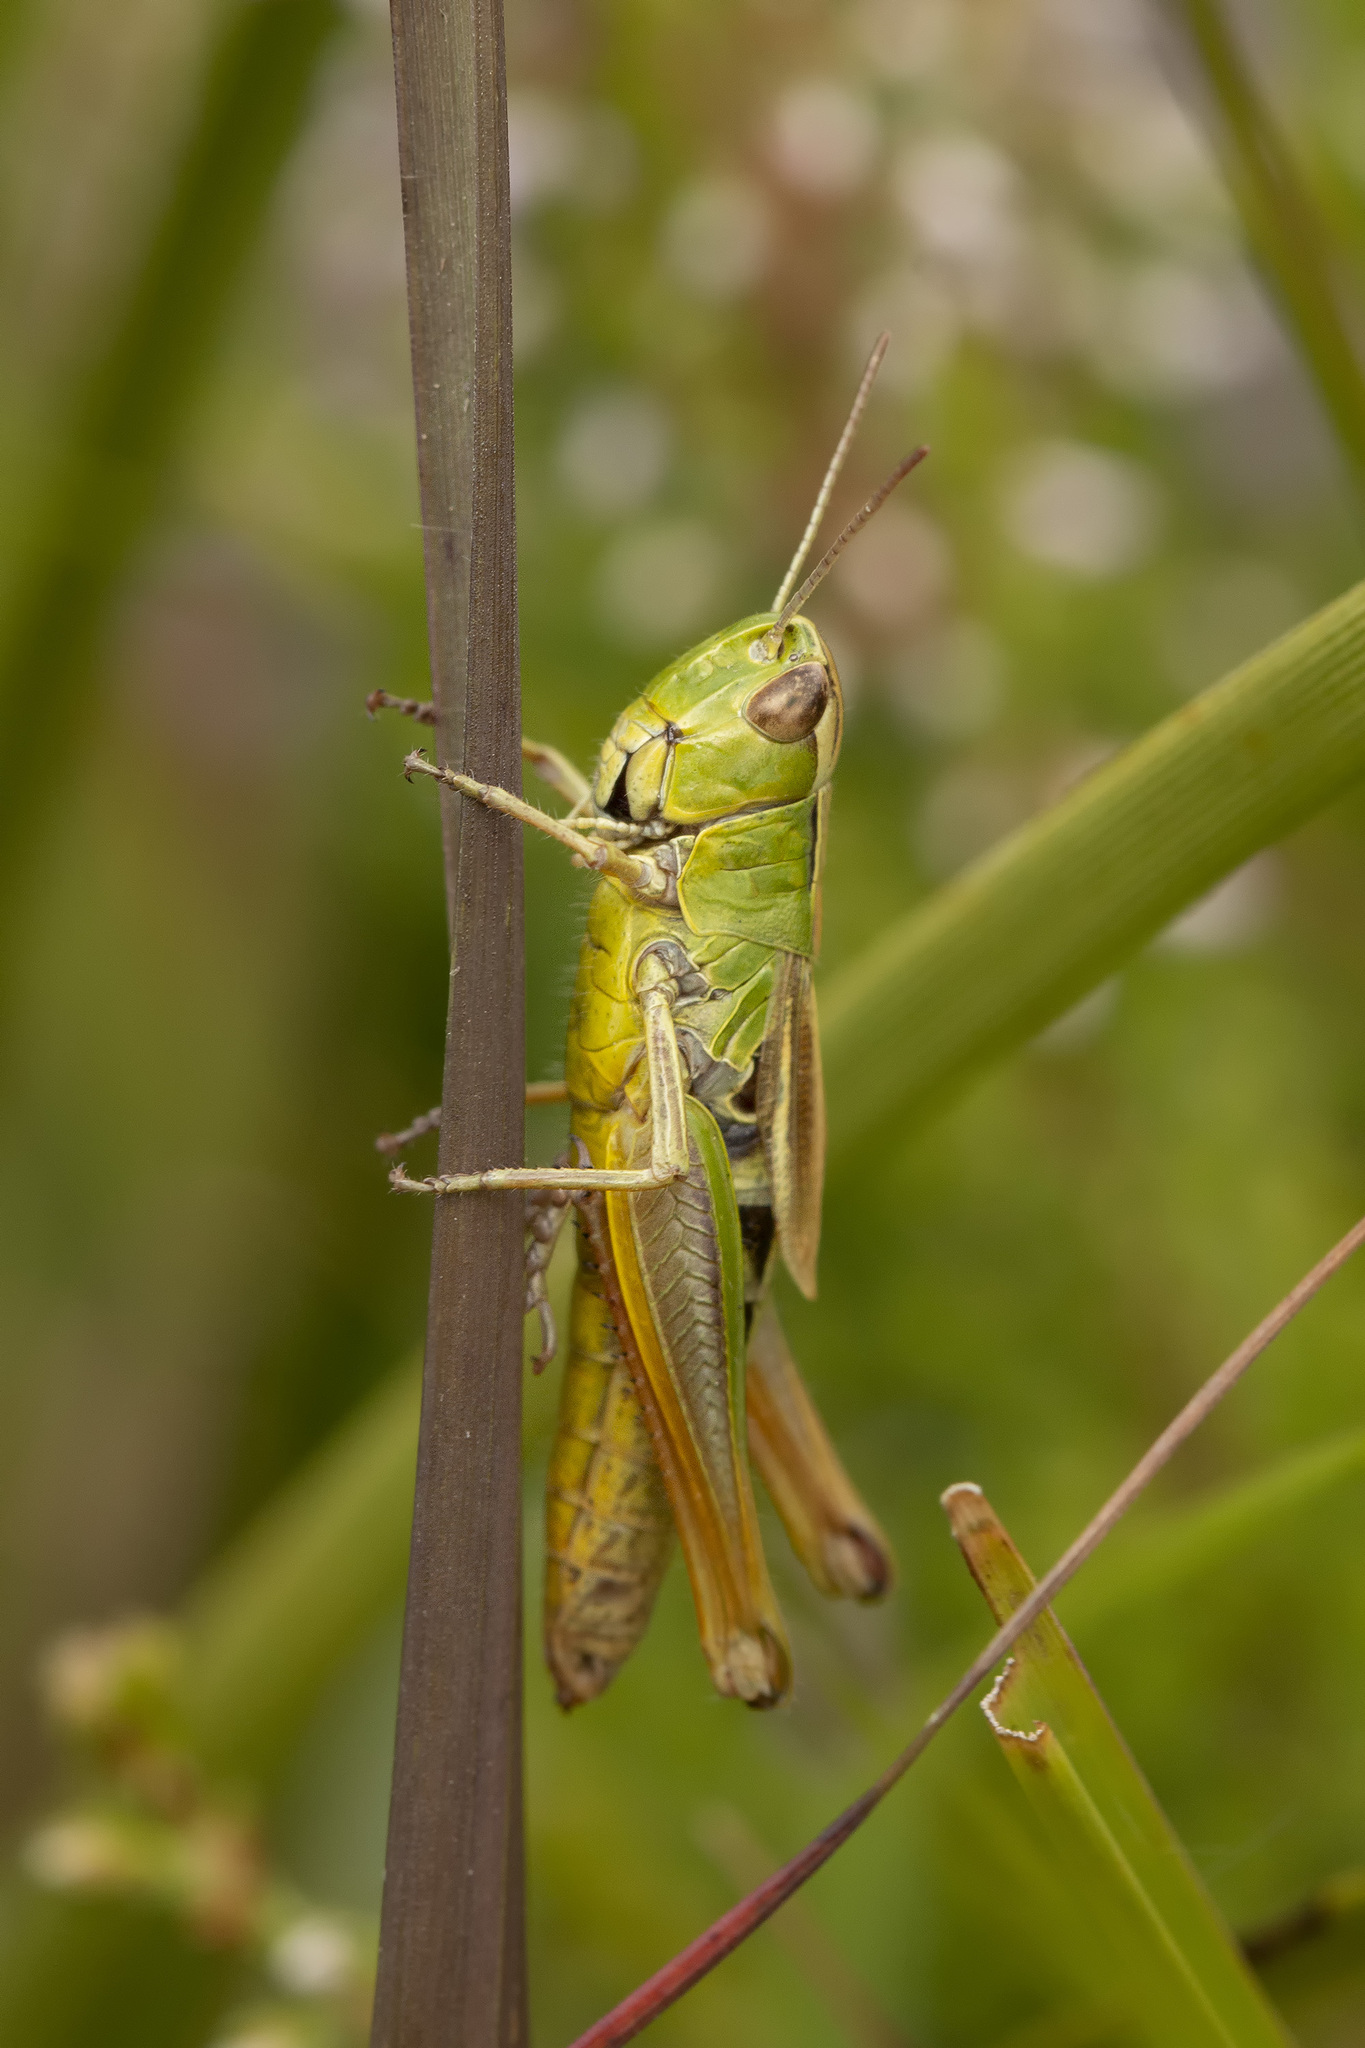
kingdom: Animalia
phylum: Arthropoda
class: Insecta
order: Orthoptera
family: Acrididae
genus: Pseudochorthippus
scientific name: Pseudochorthippus parallelus
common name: Meadow grasshopper
